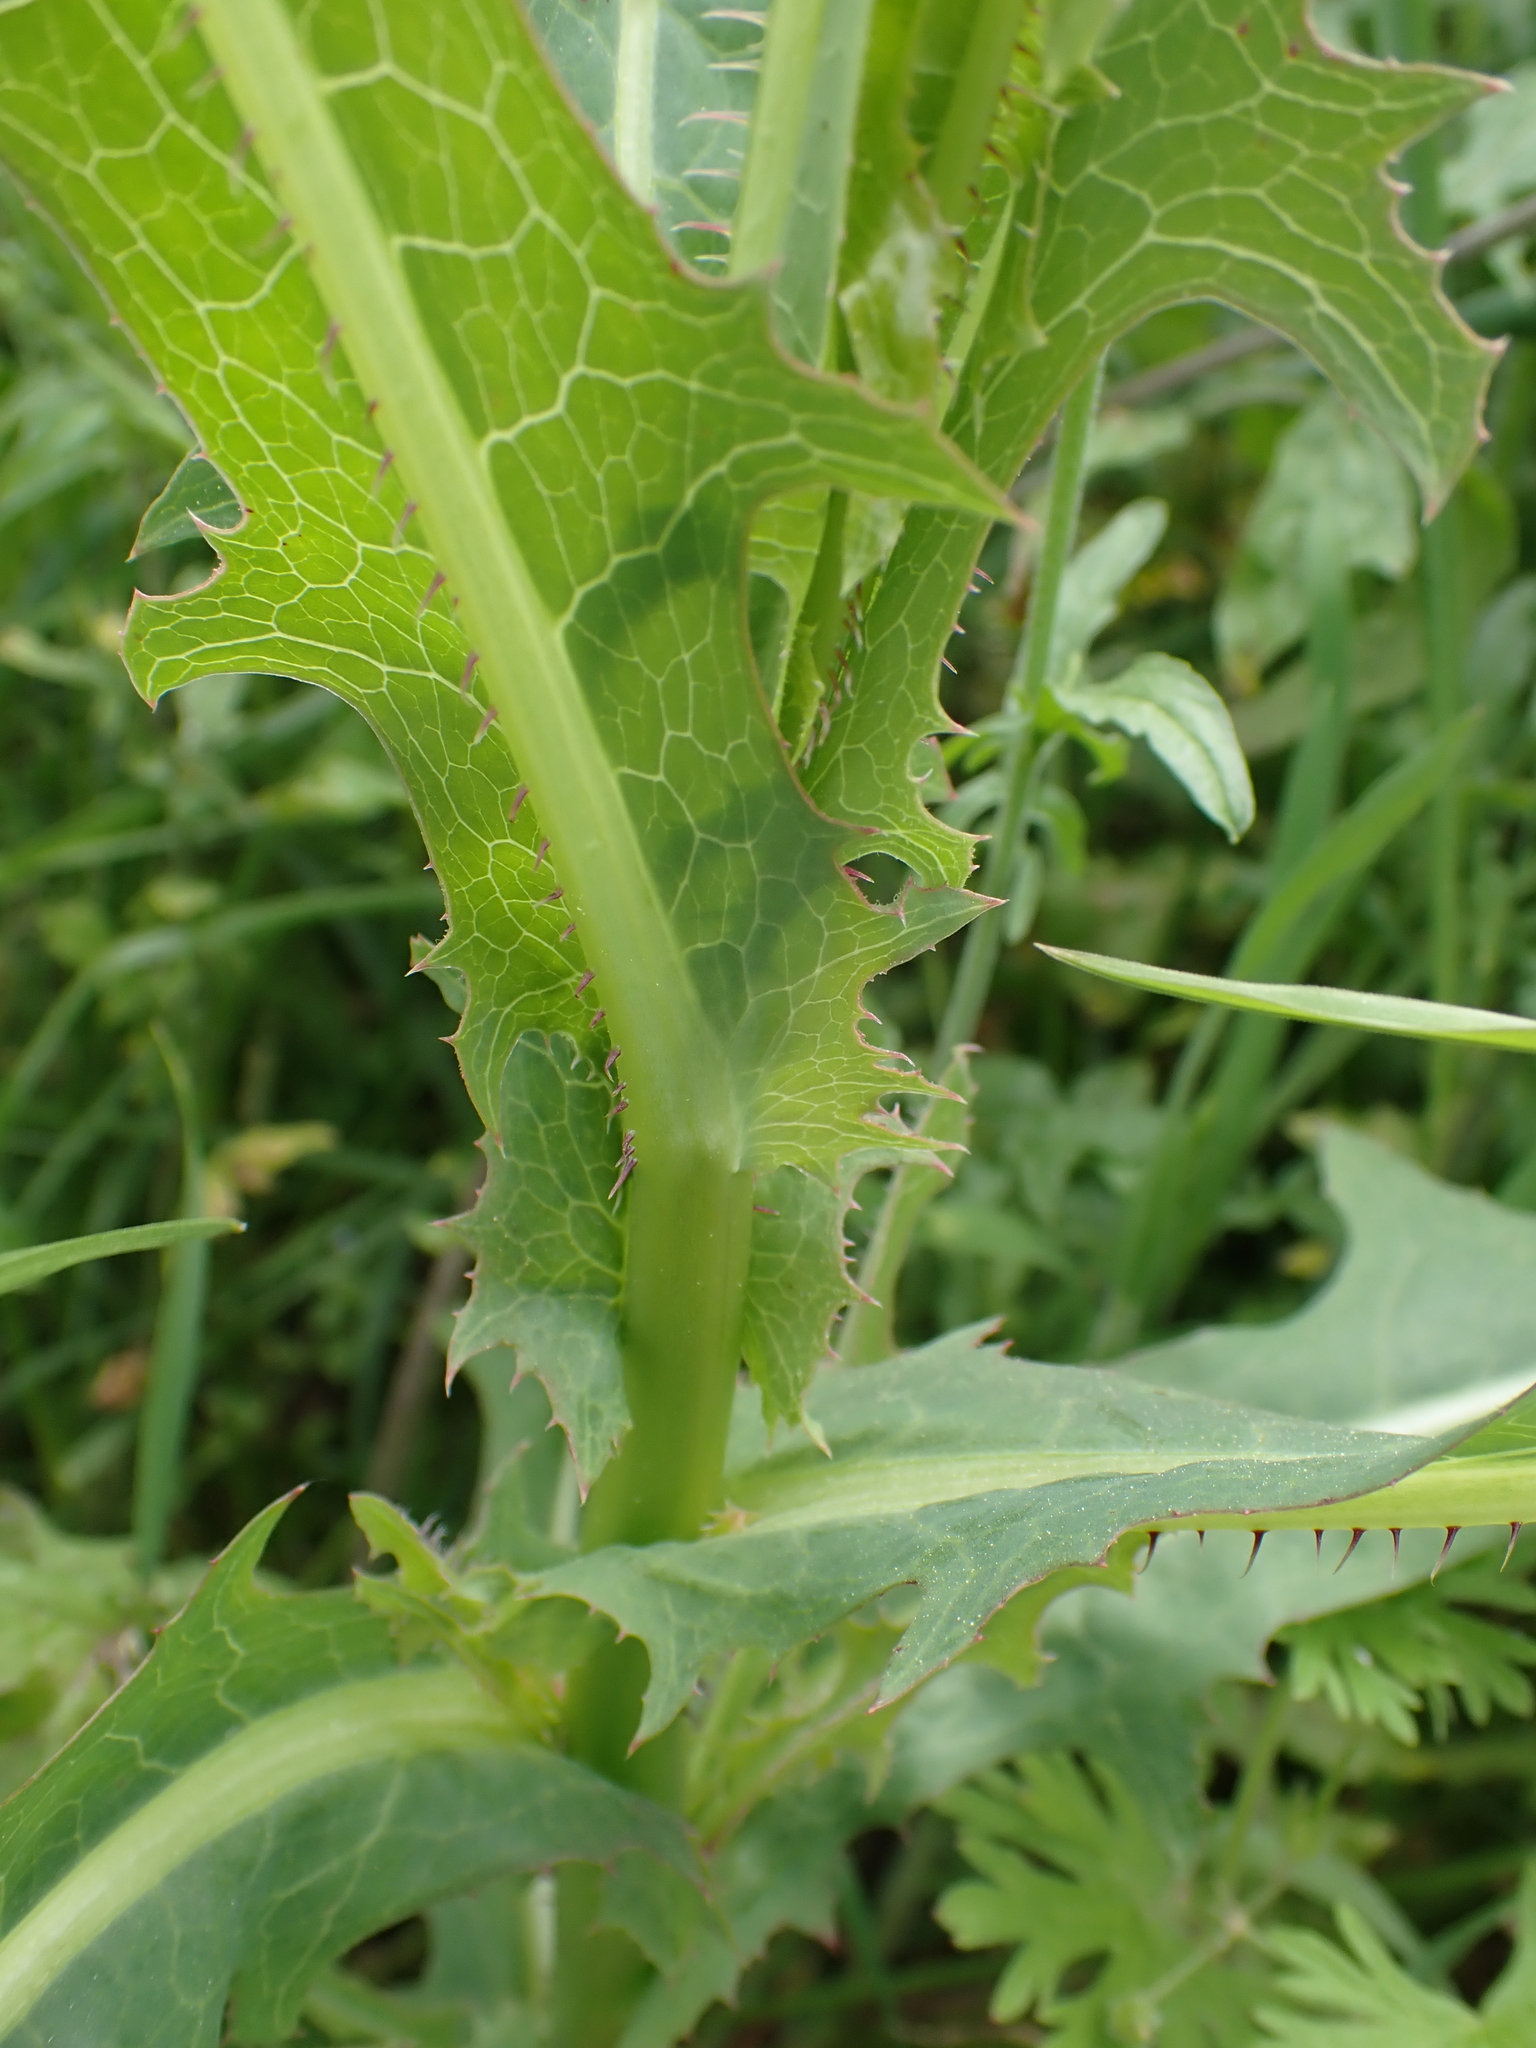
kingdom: Plantae
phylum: Tracheophyta
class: Magnoliopsida
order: Asterales
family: Asteraceae
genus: Lactuca
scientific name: Lactuca serriola
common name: Prickly lettuce
